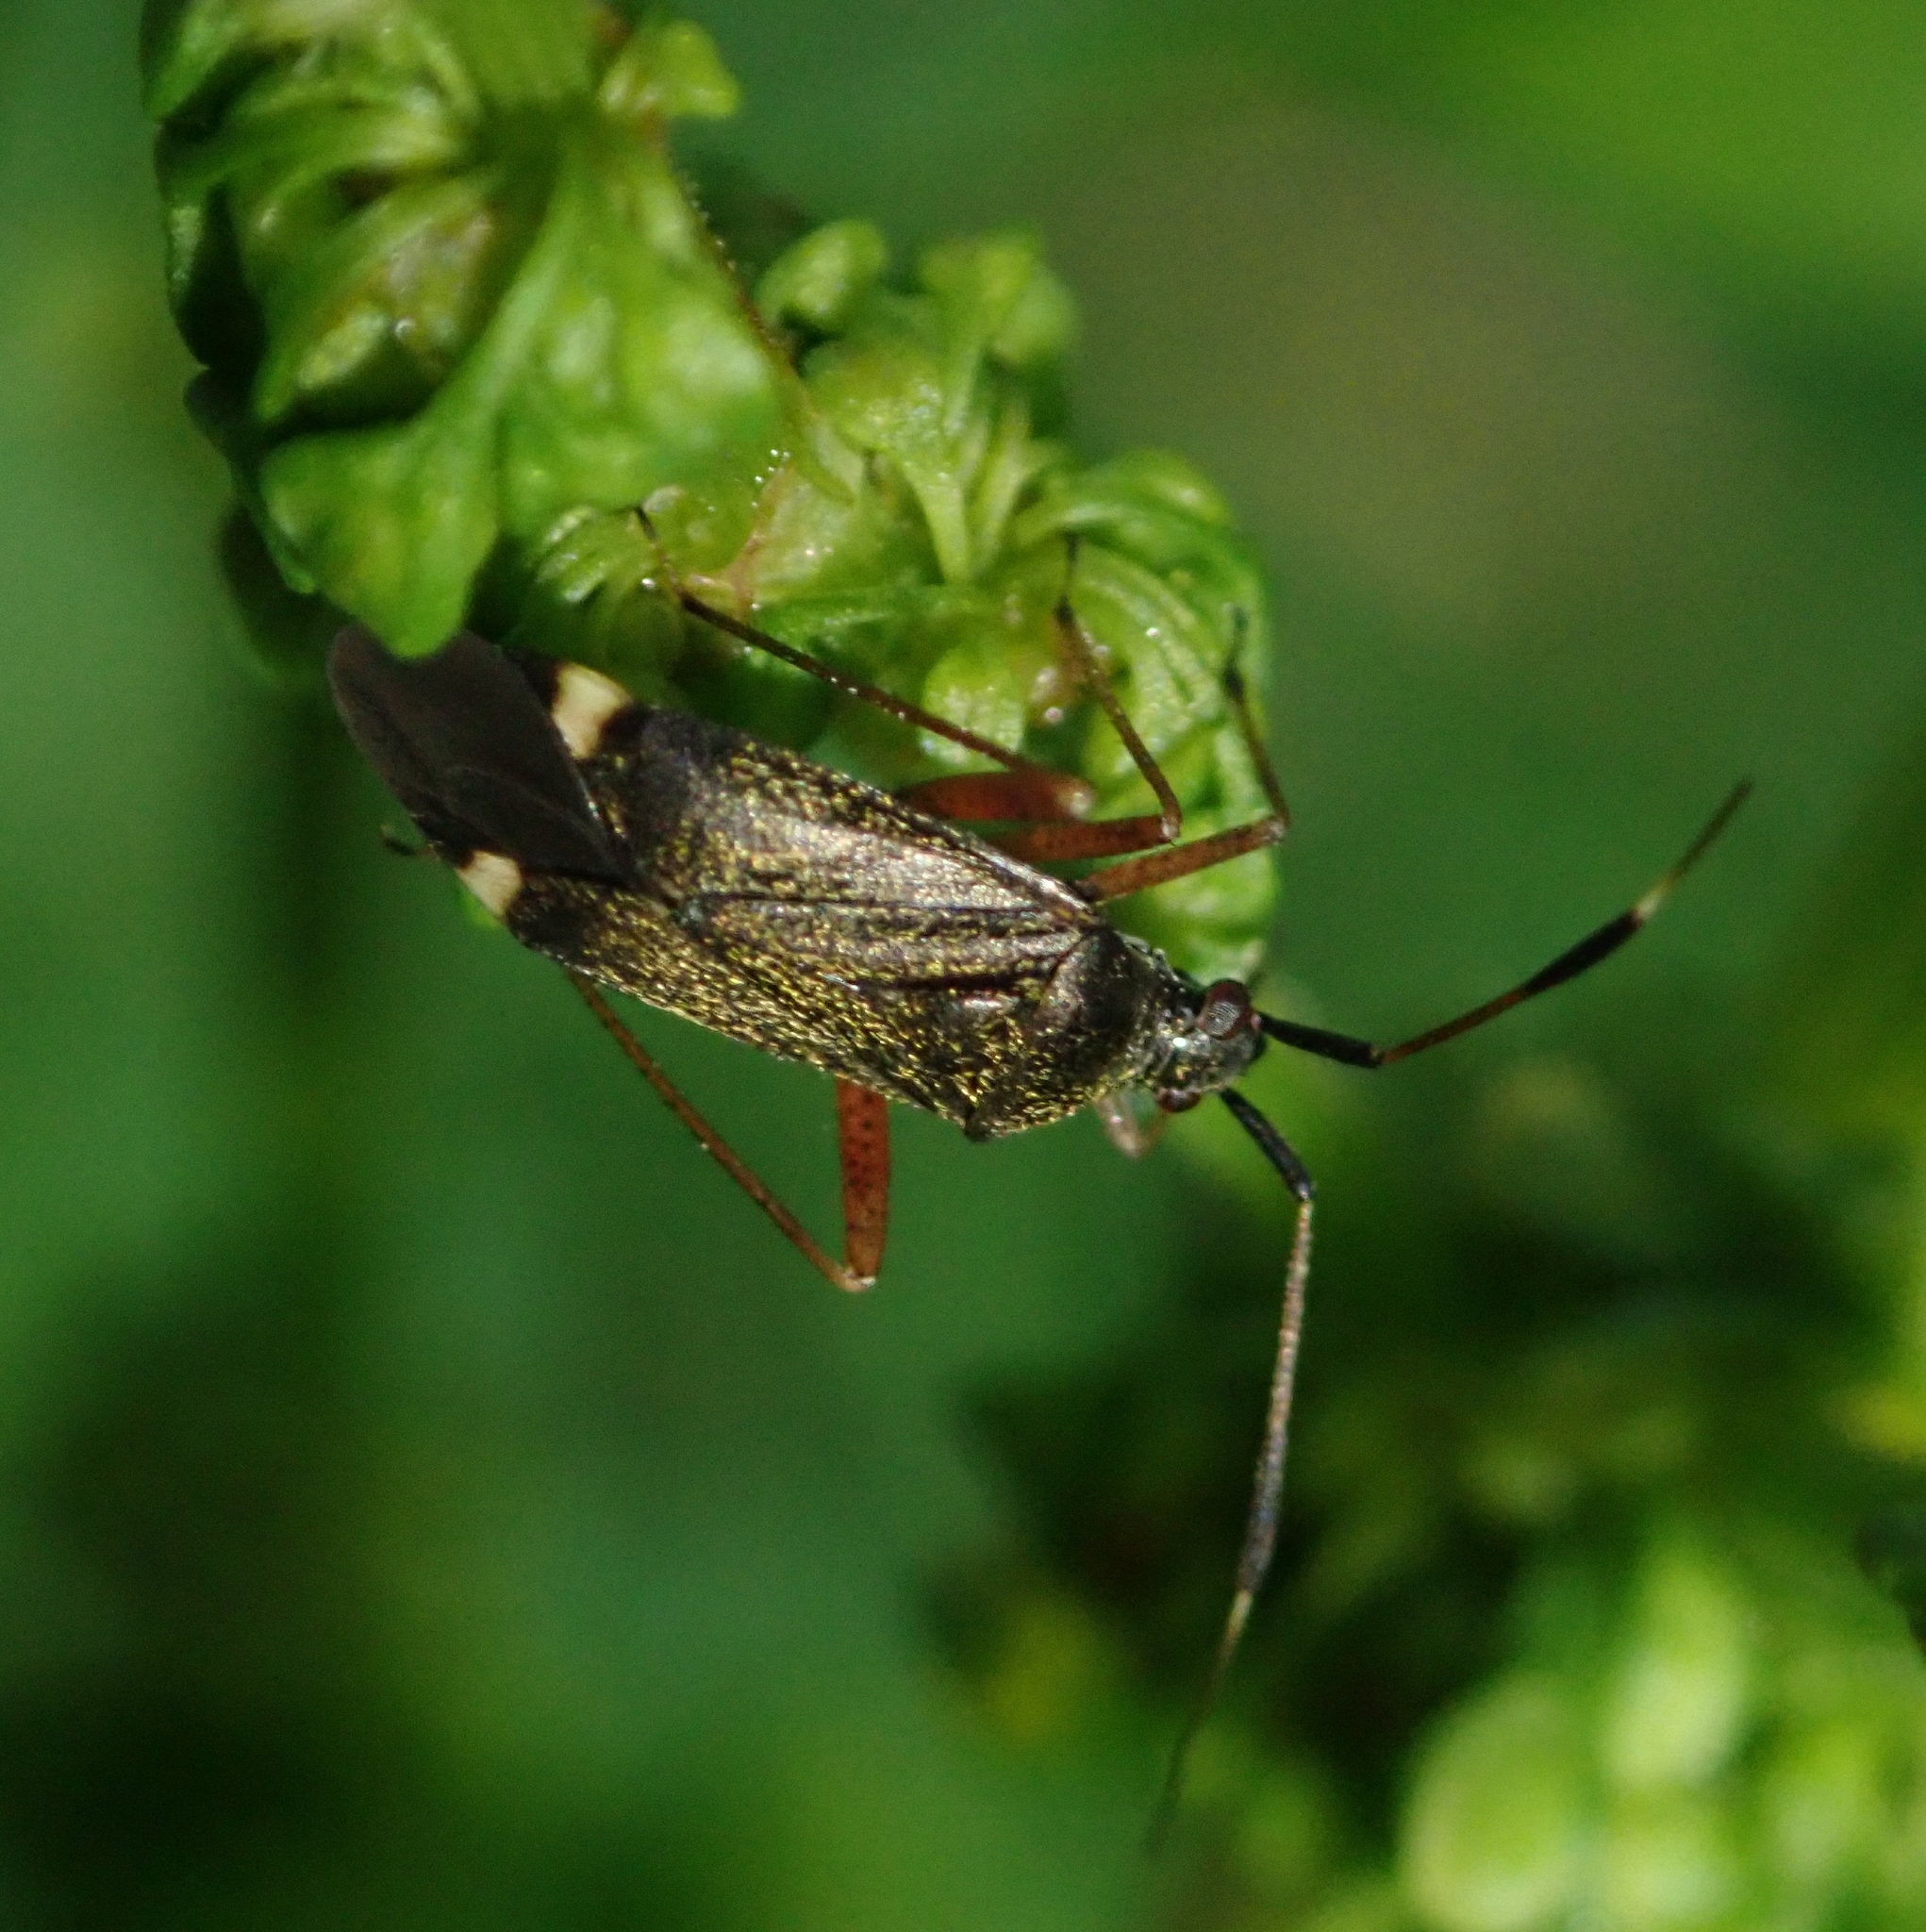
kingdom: Animalia
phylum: Arthropoda
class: Insecta
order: Hemiptera
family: Miridae
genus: Closterotomus
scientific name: Closterotomus biclavatus
